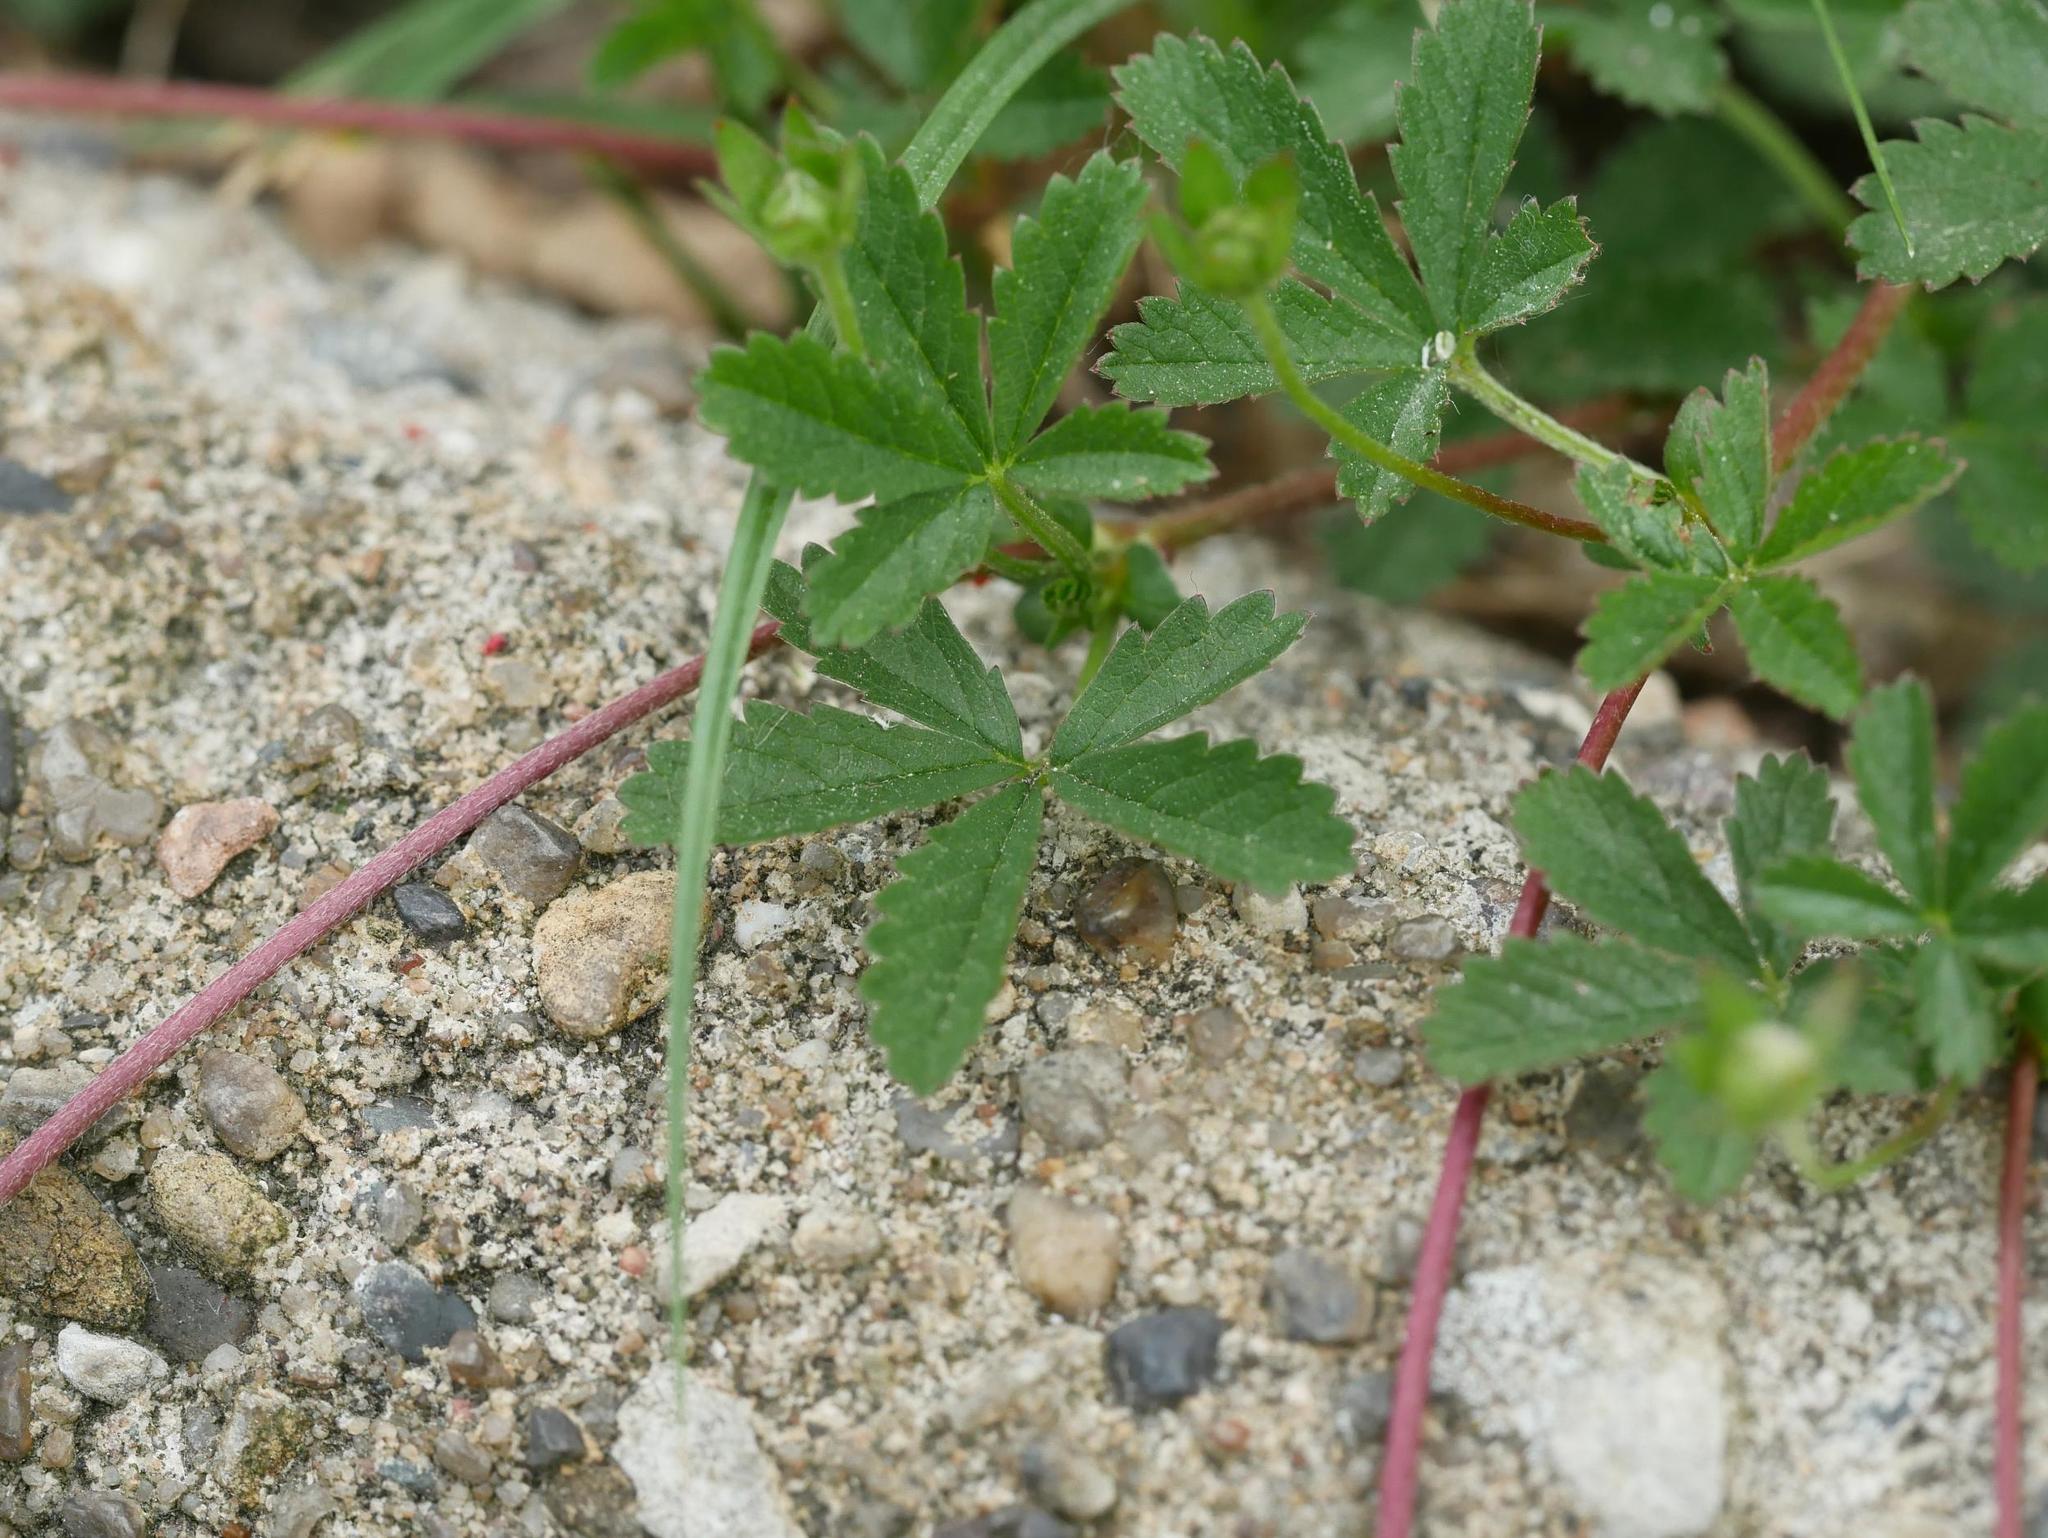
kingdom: Plantae
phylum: Tracheophyta
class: Magnoliopsida
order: Rosales
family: Rosaceae
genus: Potentilla
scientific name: Potentilla reptans
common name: Creeping cinquefoil
